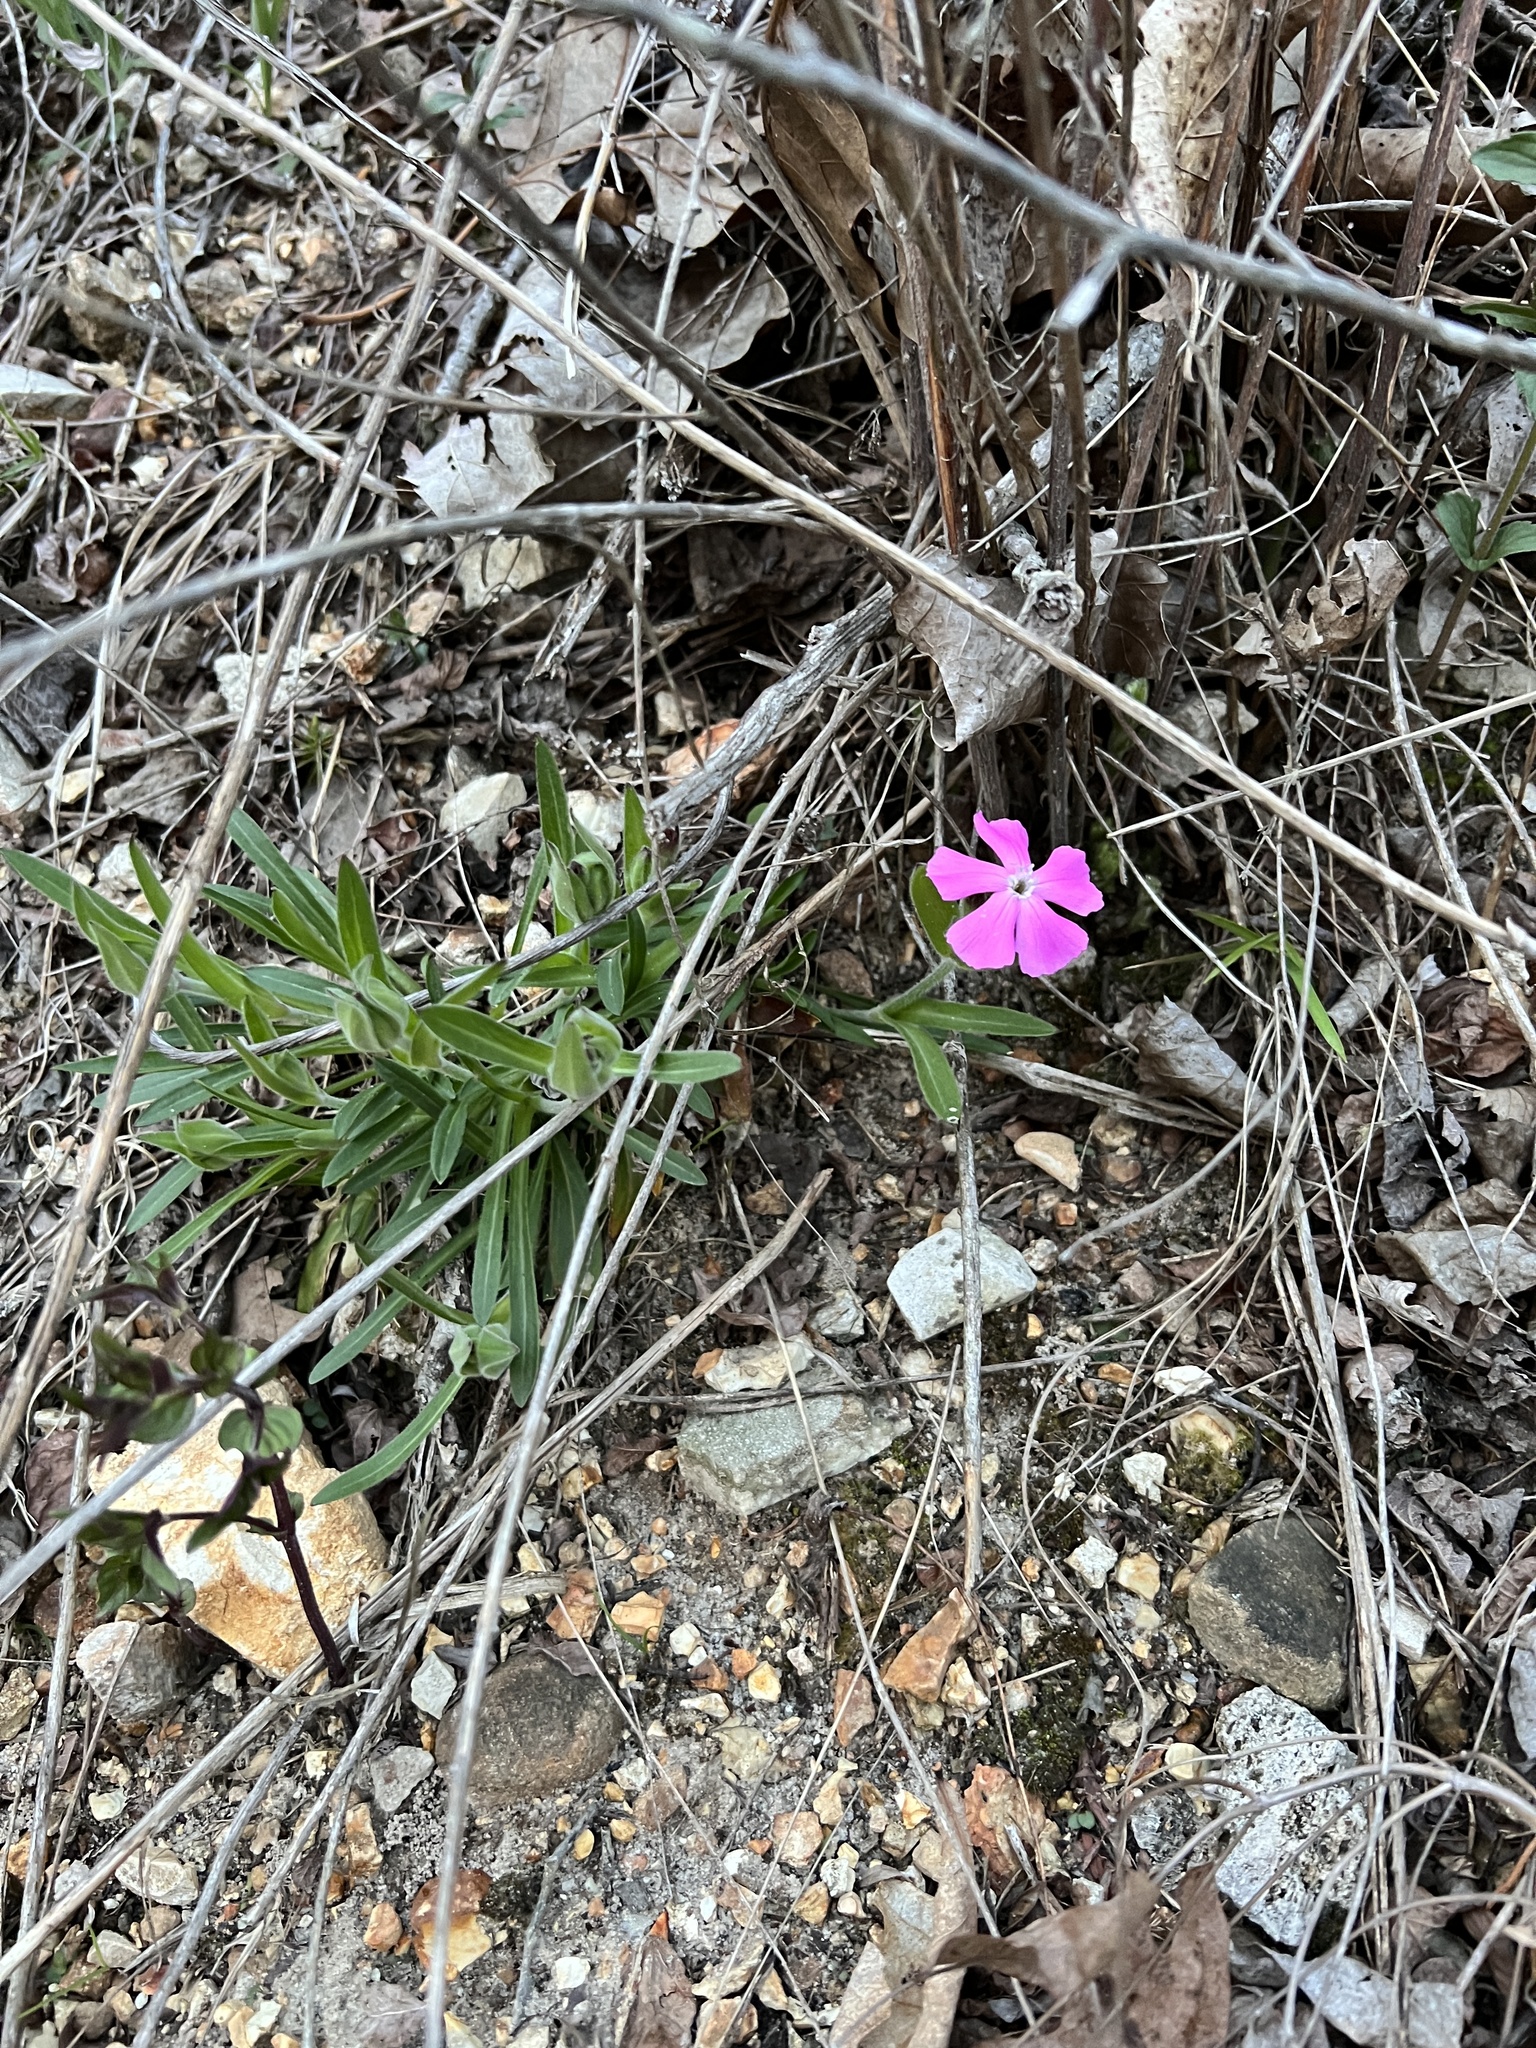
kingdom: Plantae
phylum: Tracheophyta
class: Magnoliopsida
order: Caryophyllales
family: Caryophyllaceae
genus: Silene
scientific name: Silene caroliniana
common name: Sticky catchfly
